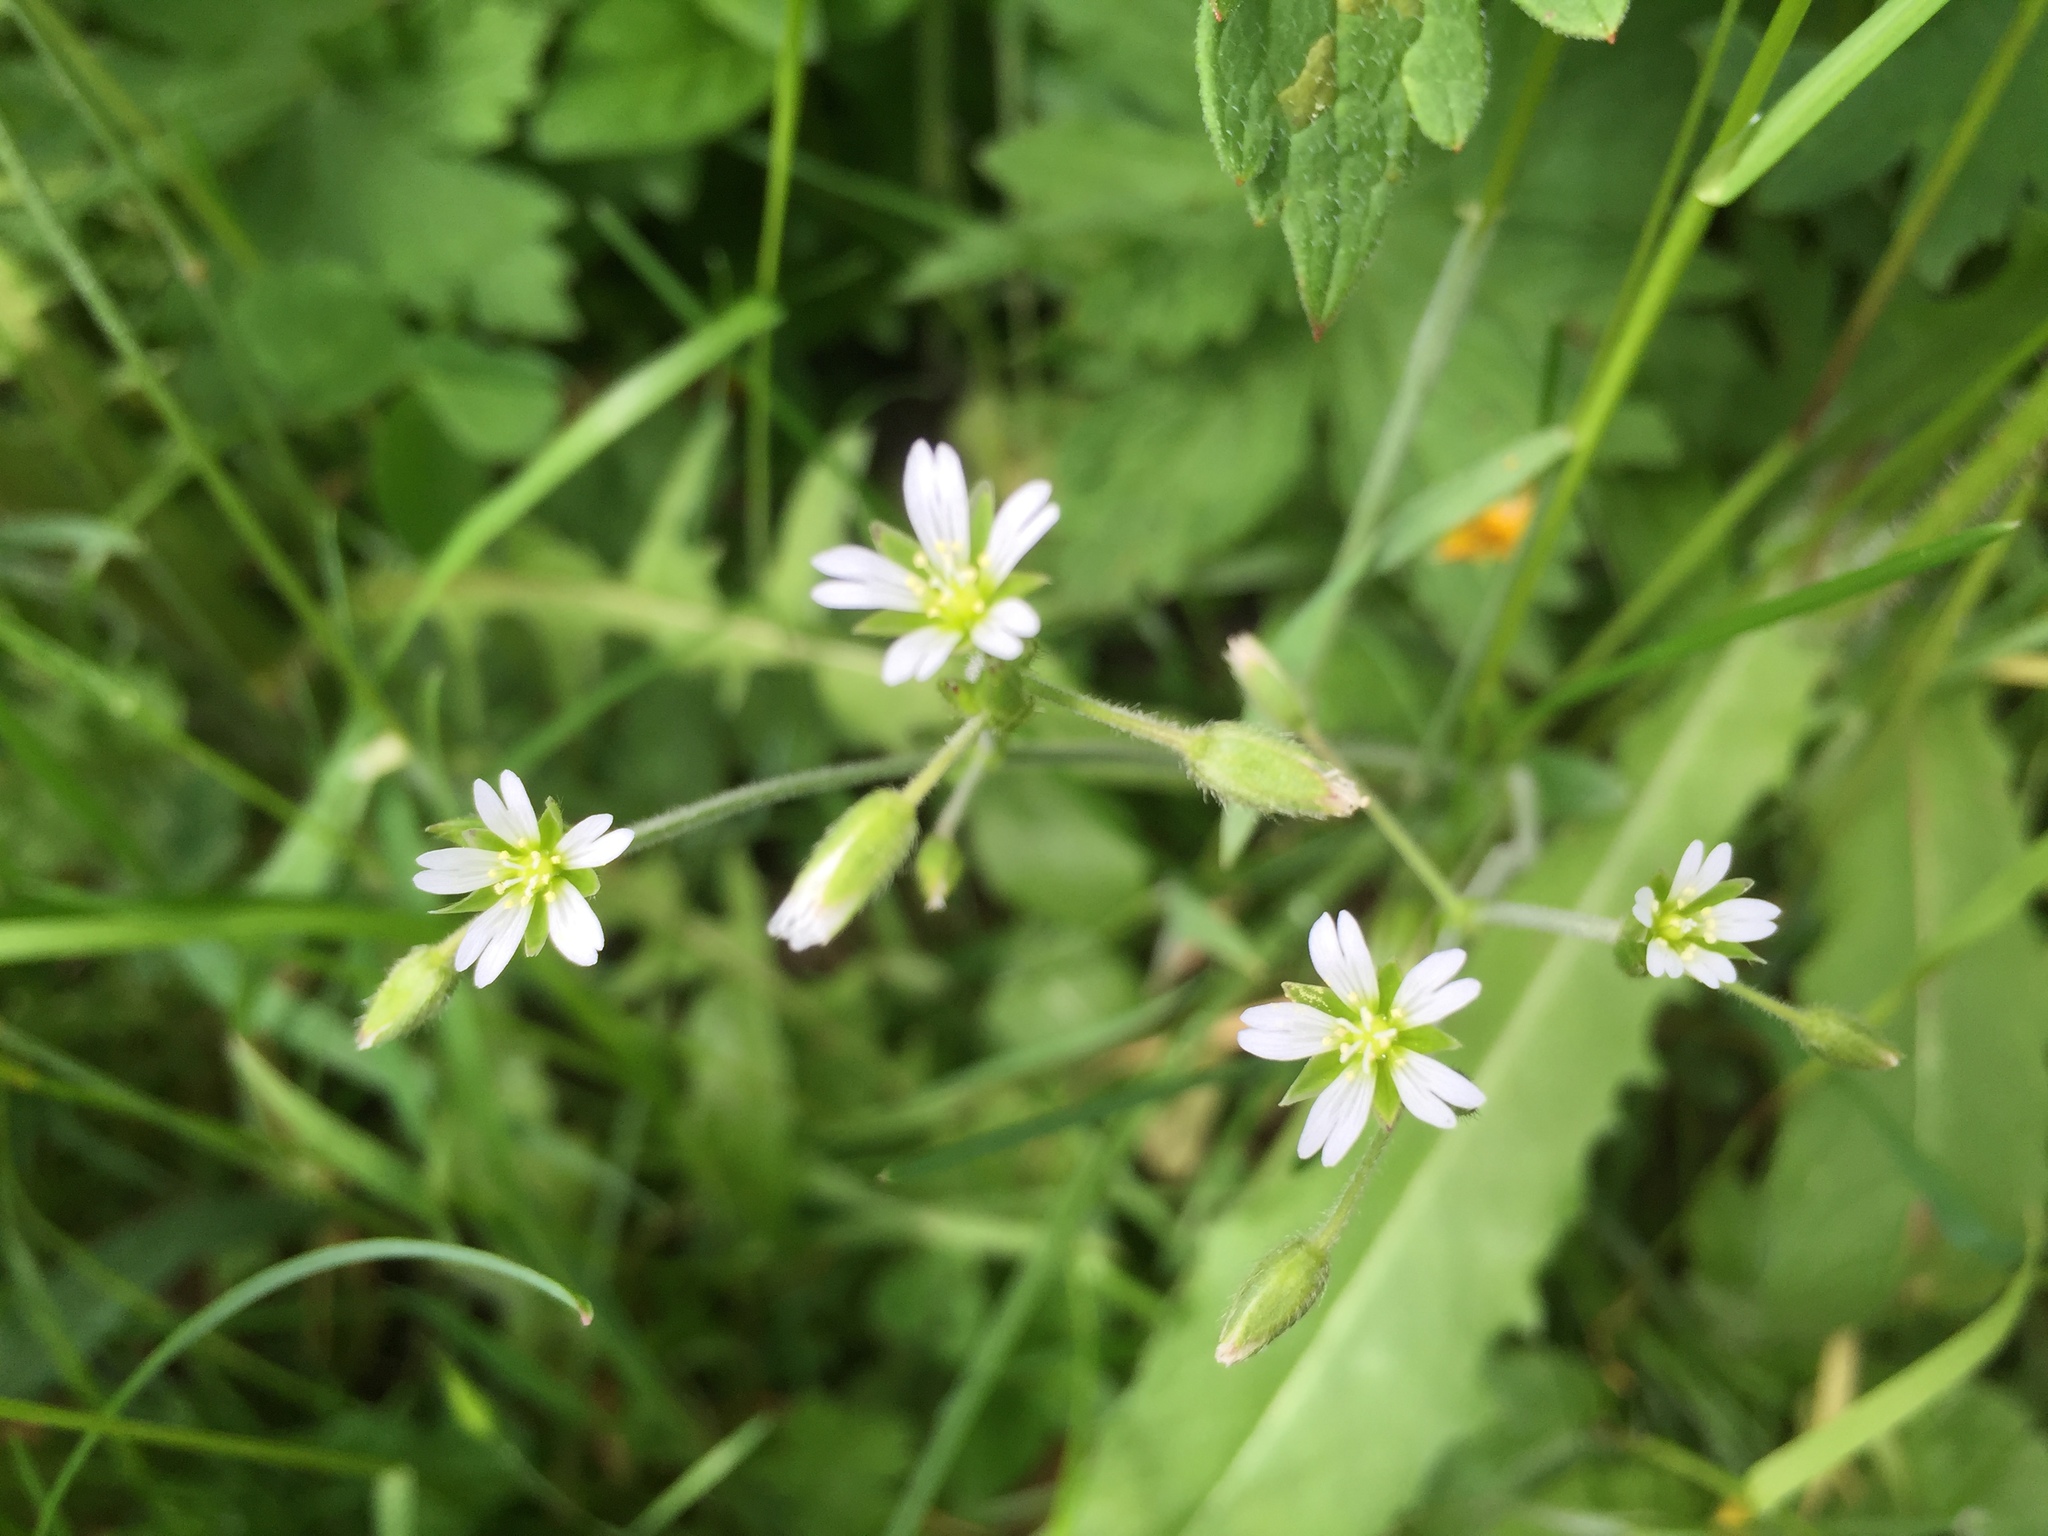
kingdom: Plantae
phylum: Tracheophyta
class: Magnoliopsida
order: Caryophyllales
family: Caryophyllaceae
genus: Cerastium
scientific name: Cerastium fontanum
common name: Common mouse-ear
